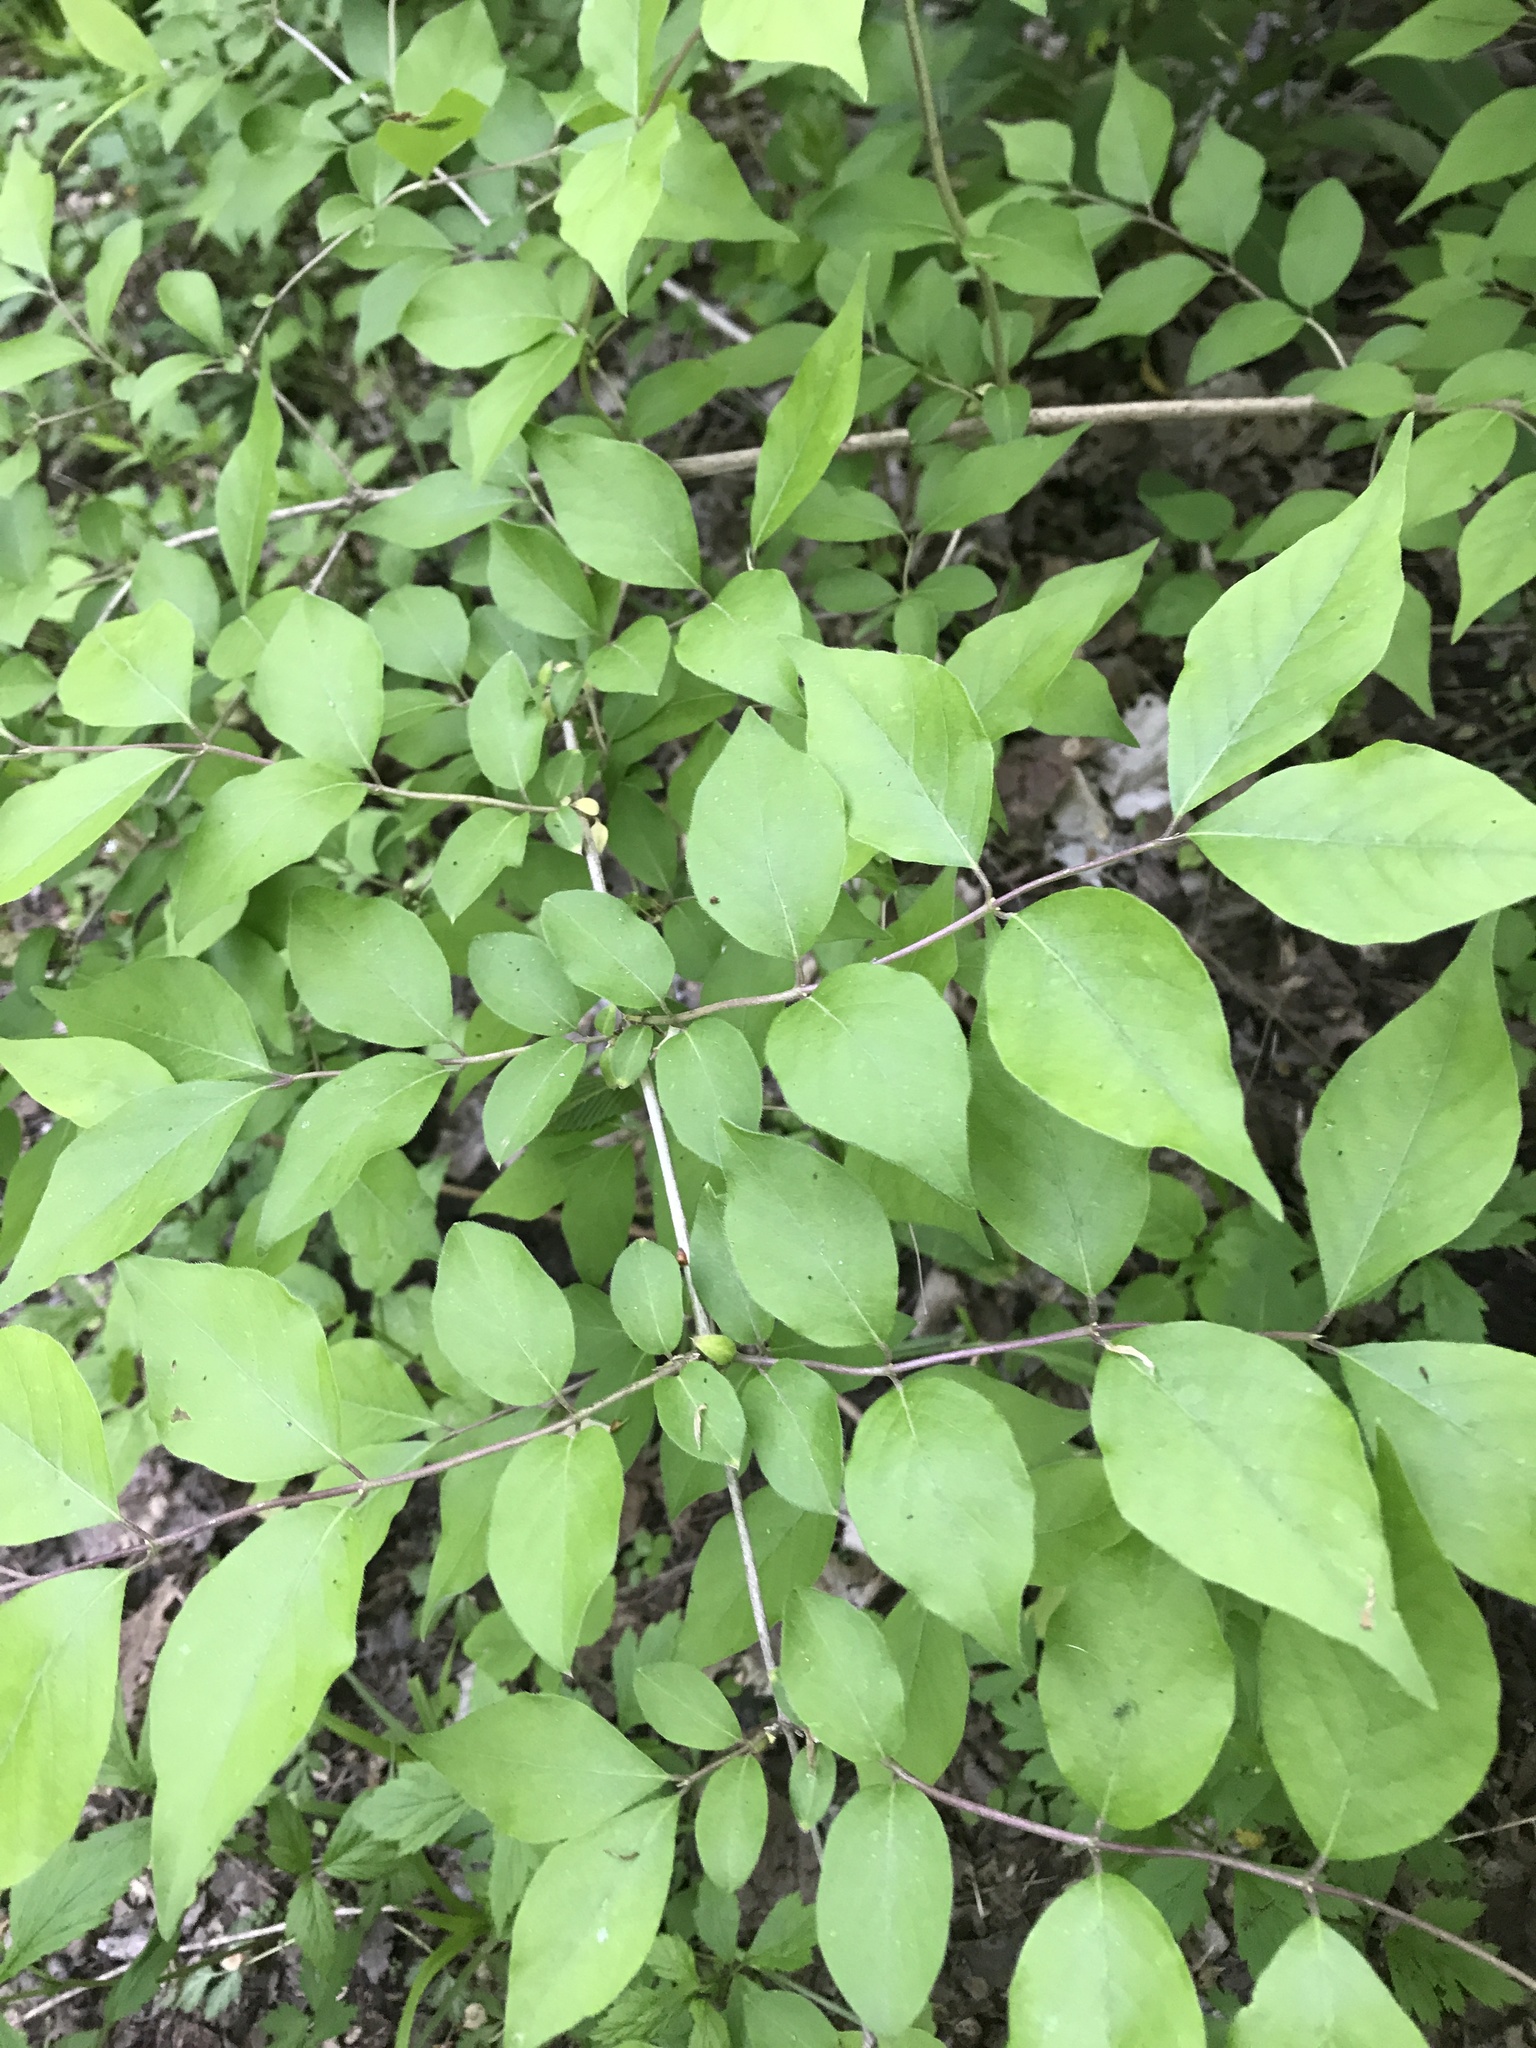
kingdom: Plantae
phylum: Tracheophyta
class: Magnoliopsida
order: Dipsacales
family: Caprifoliaceae
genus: Lonicera
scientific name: Lonicera maackii
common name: Amur honeysuckle
